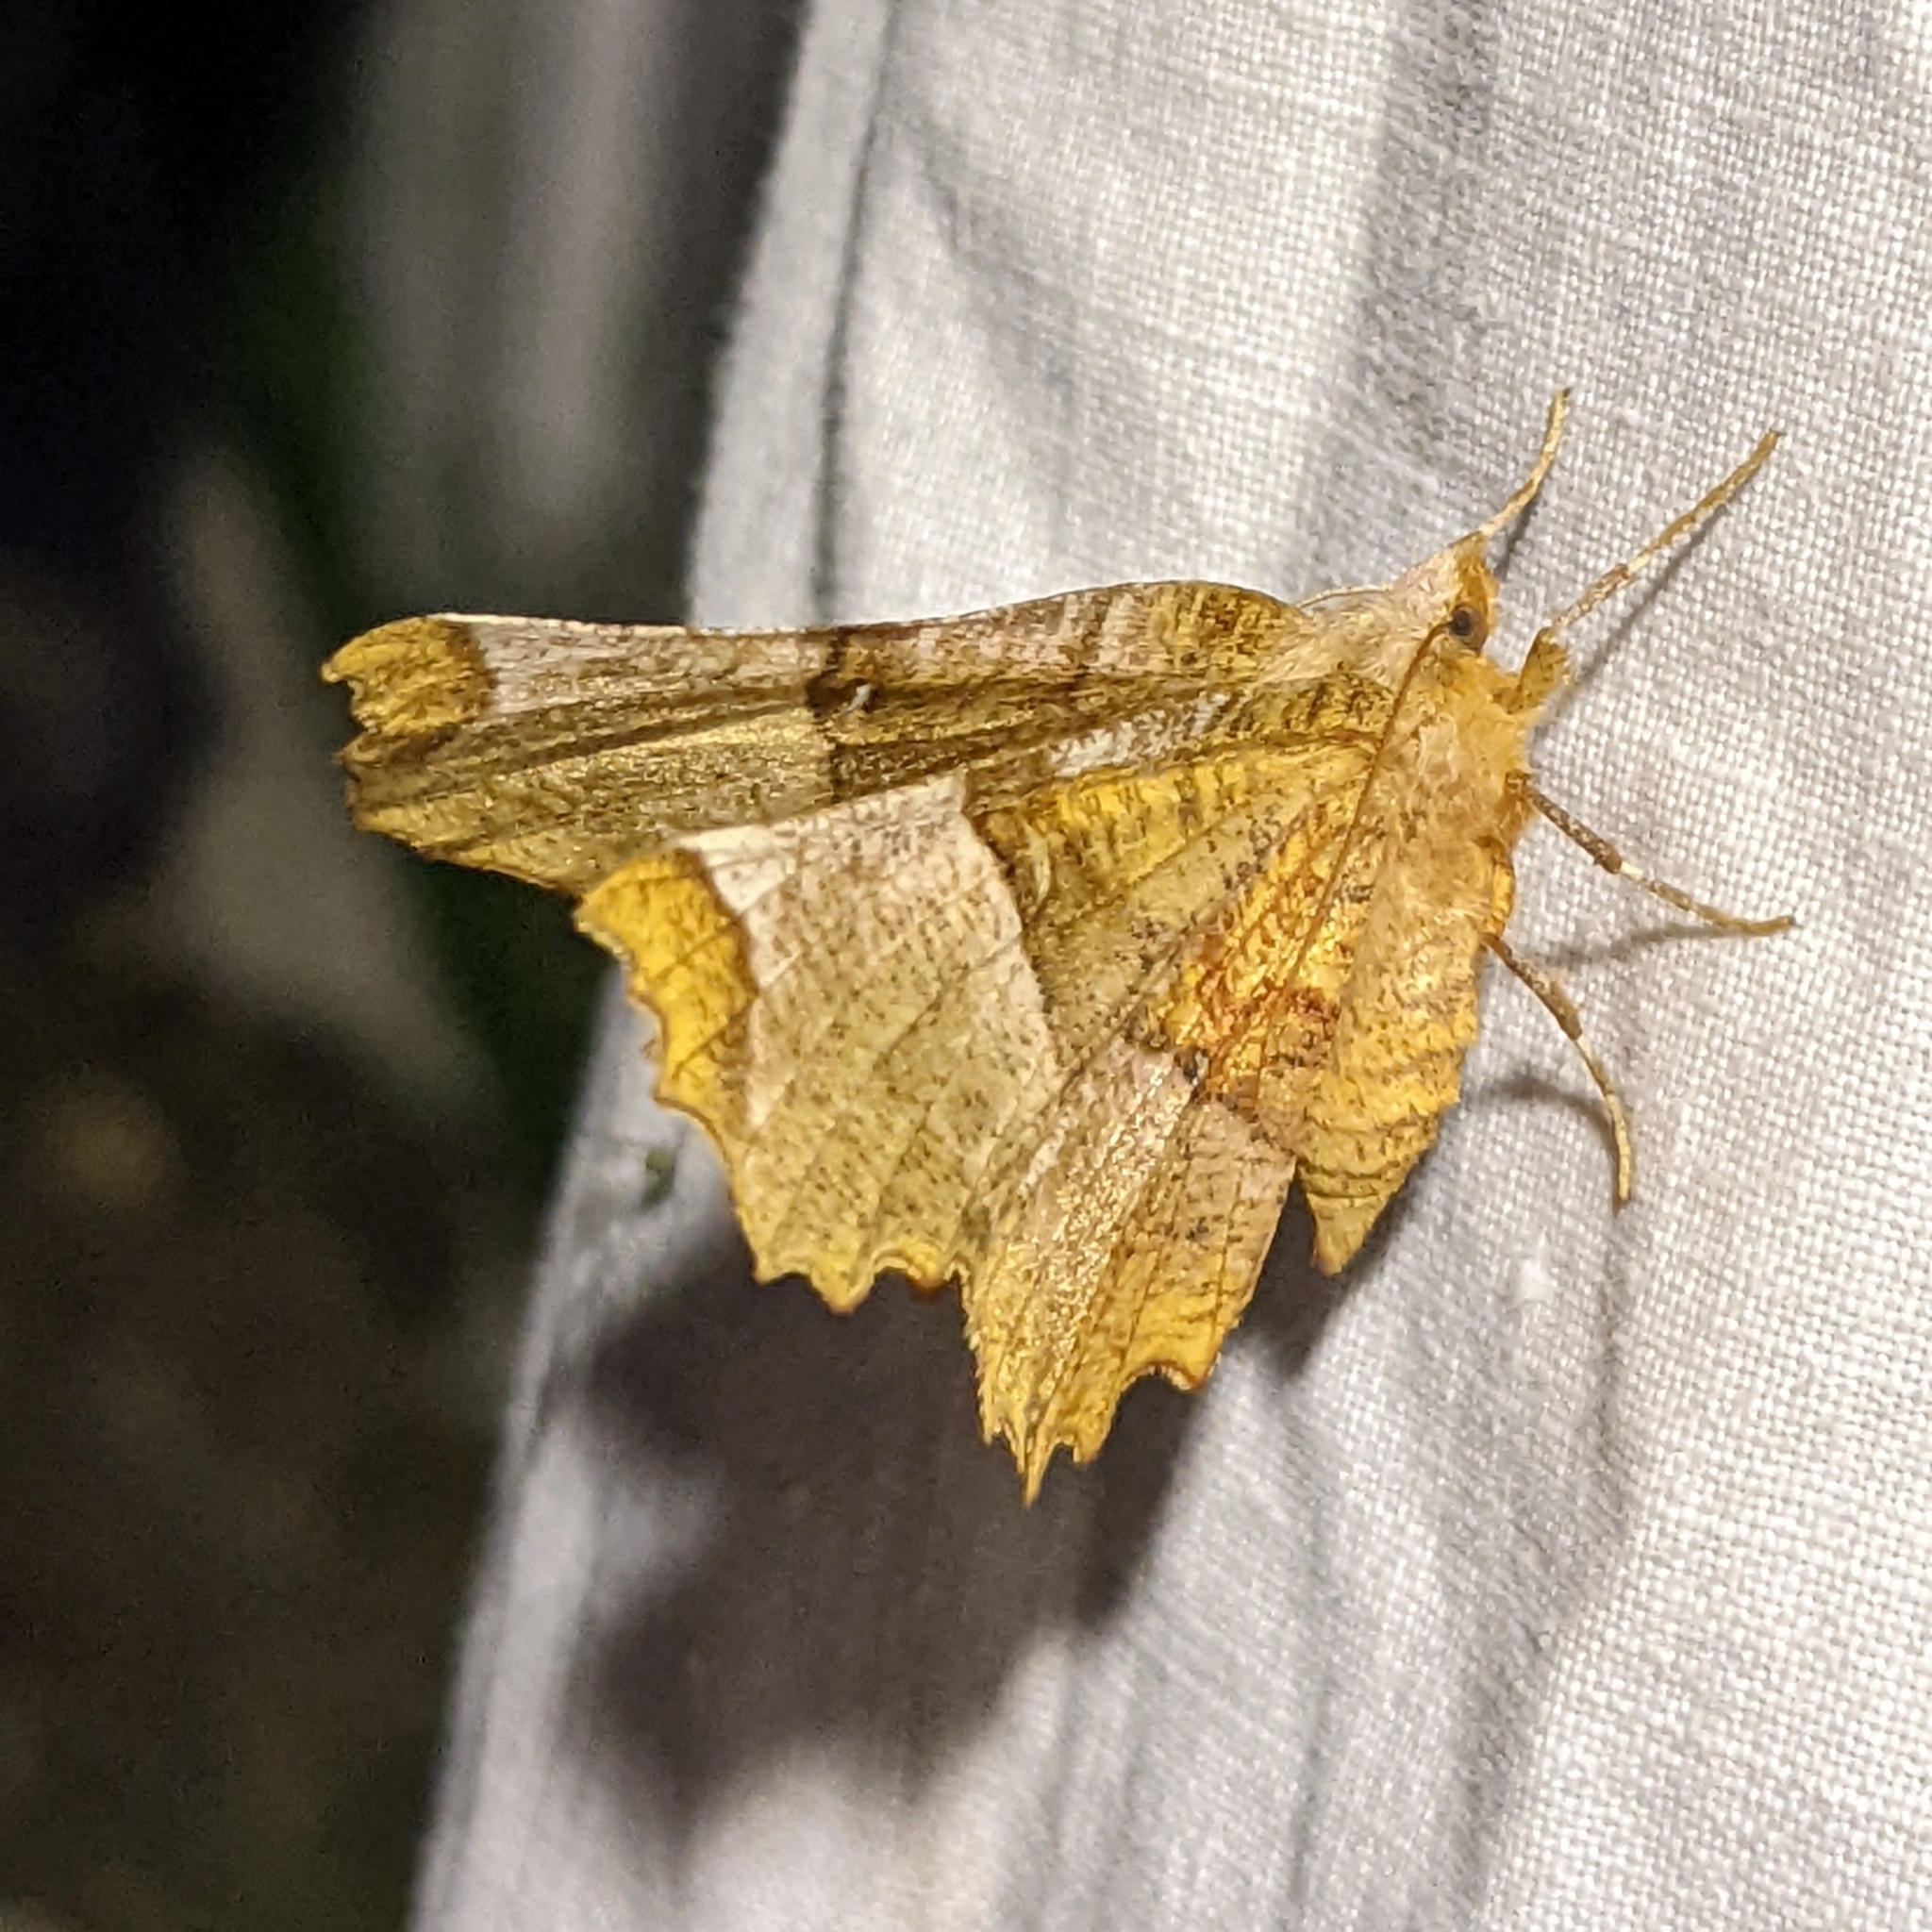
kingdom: Animalia
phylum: Arthropoda
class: Insecta
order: Lepidoptera
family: Geometridae
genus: Selenia
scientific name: Selenia lunularia
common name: Lunar thorn
